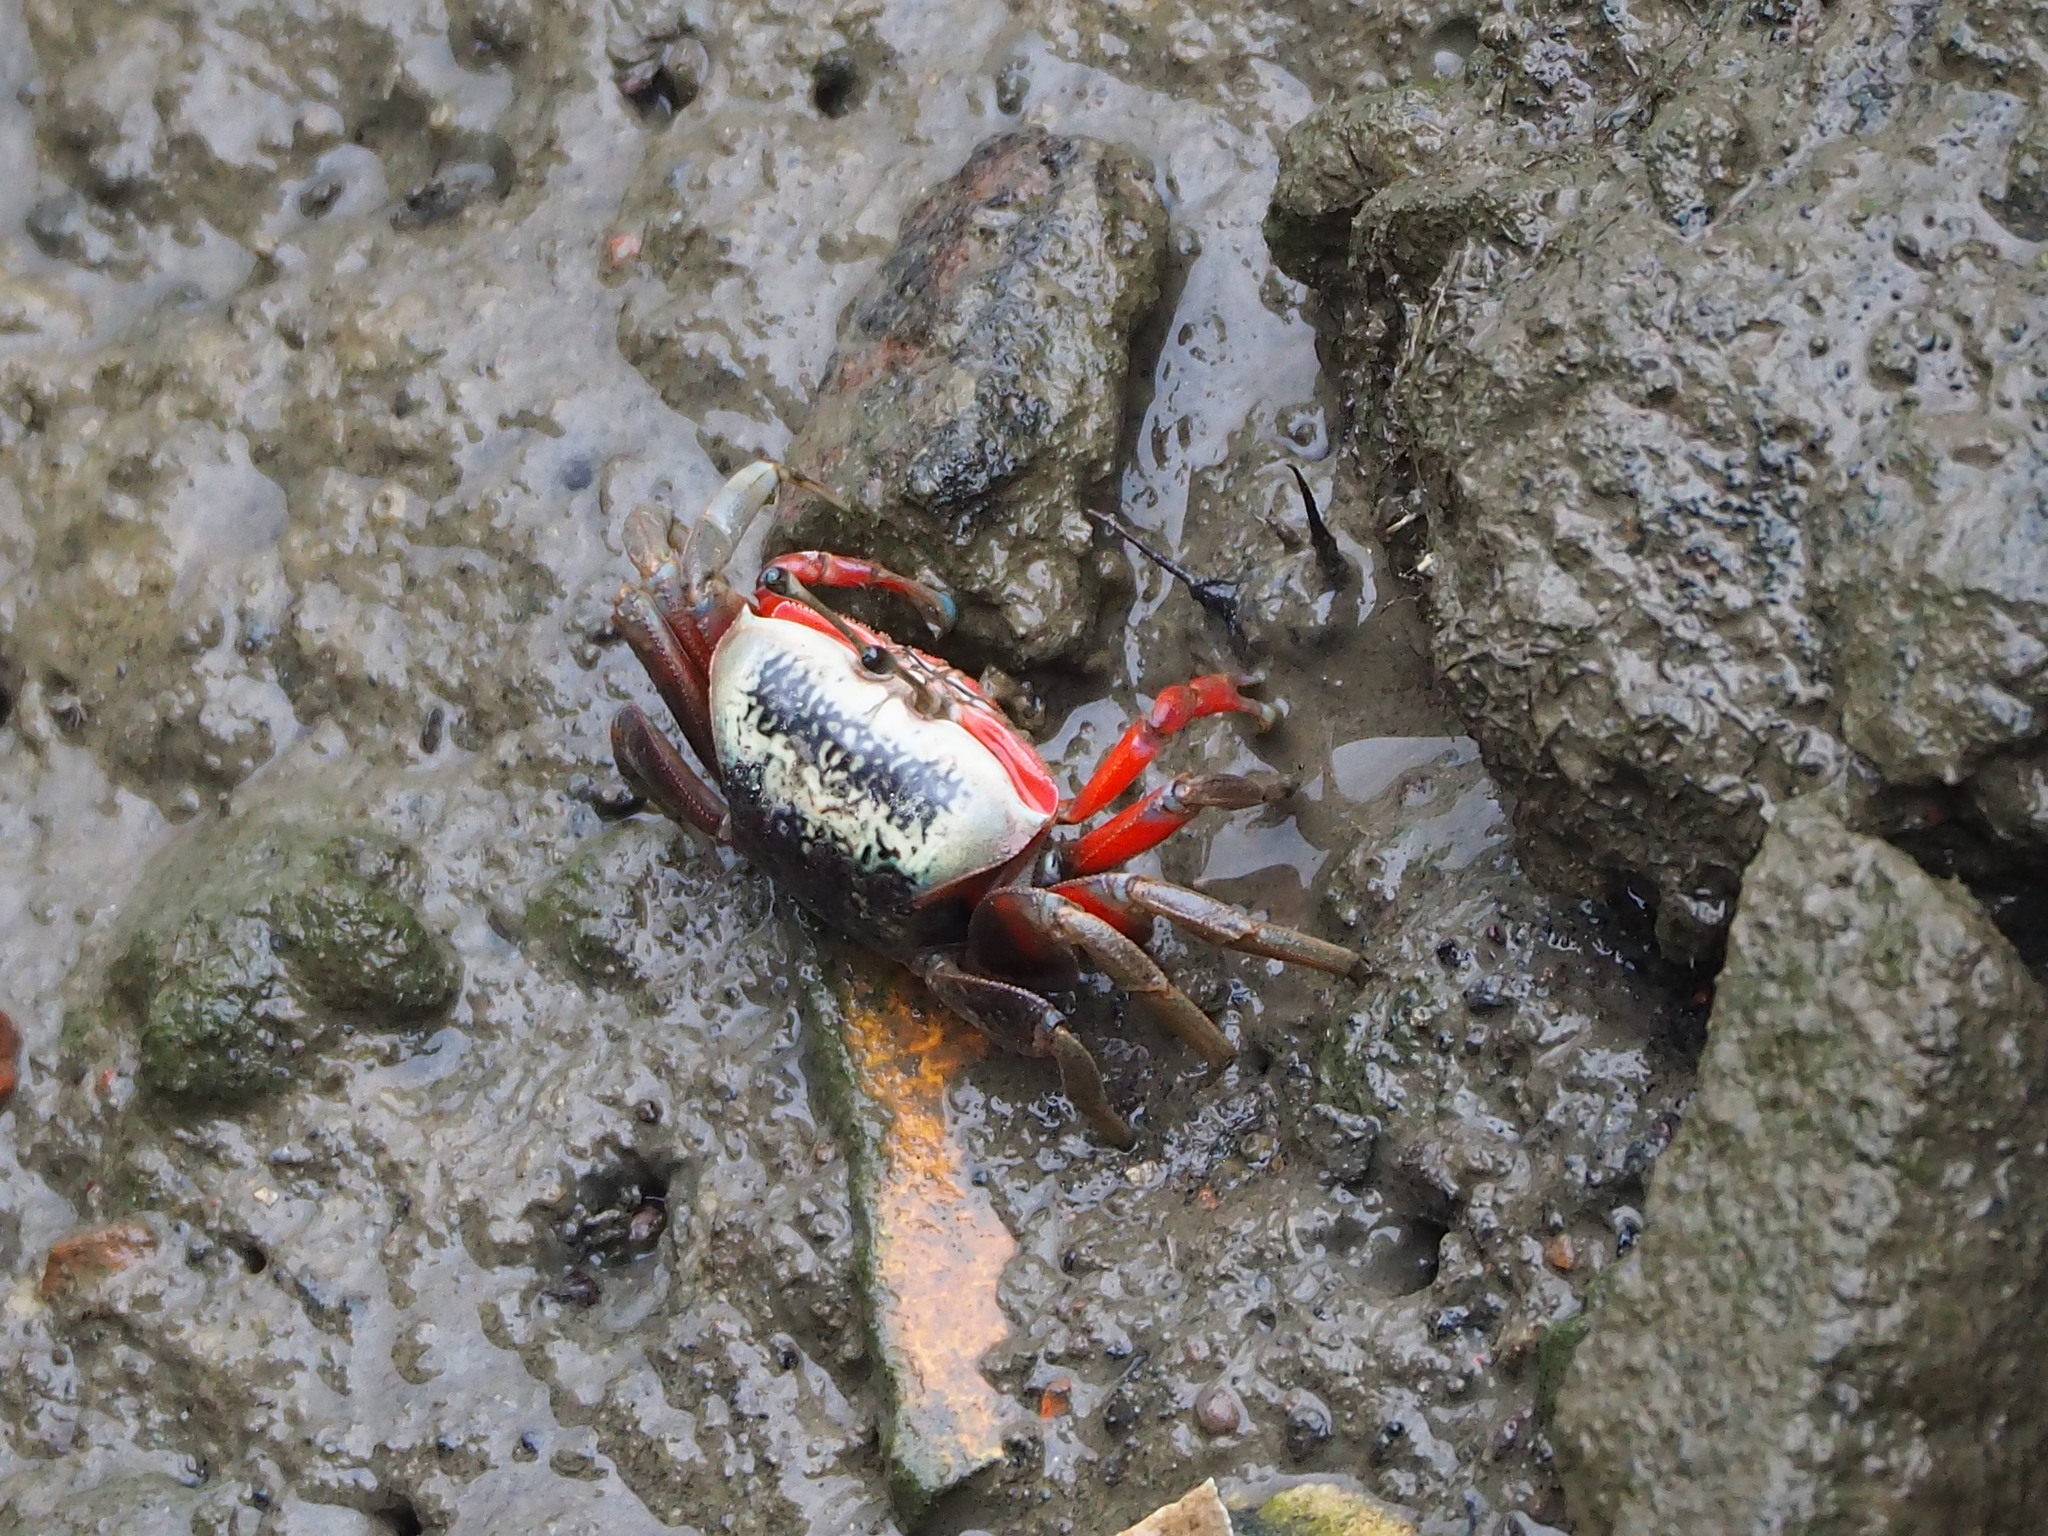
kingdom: Animalia
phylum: Arthropoda
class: Malacostraca
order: Decapoda
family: Ocypodidae
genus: Tubuca
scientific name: Tubuca arcuata
